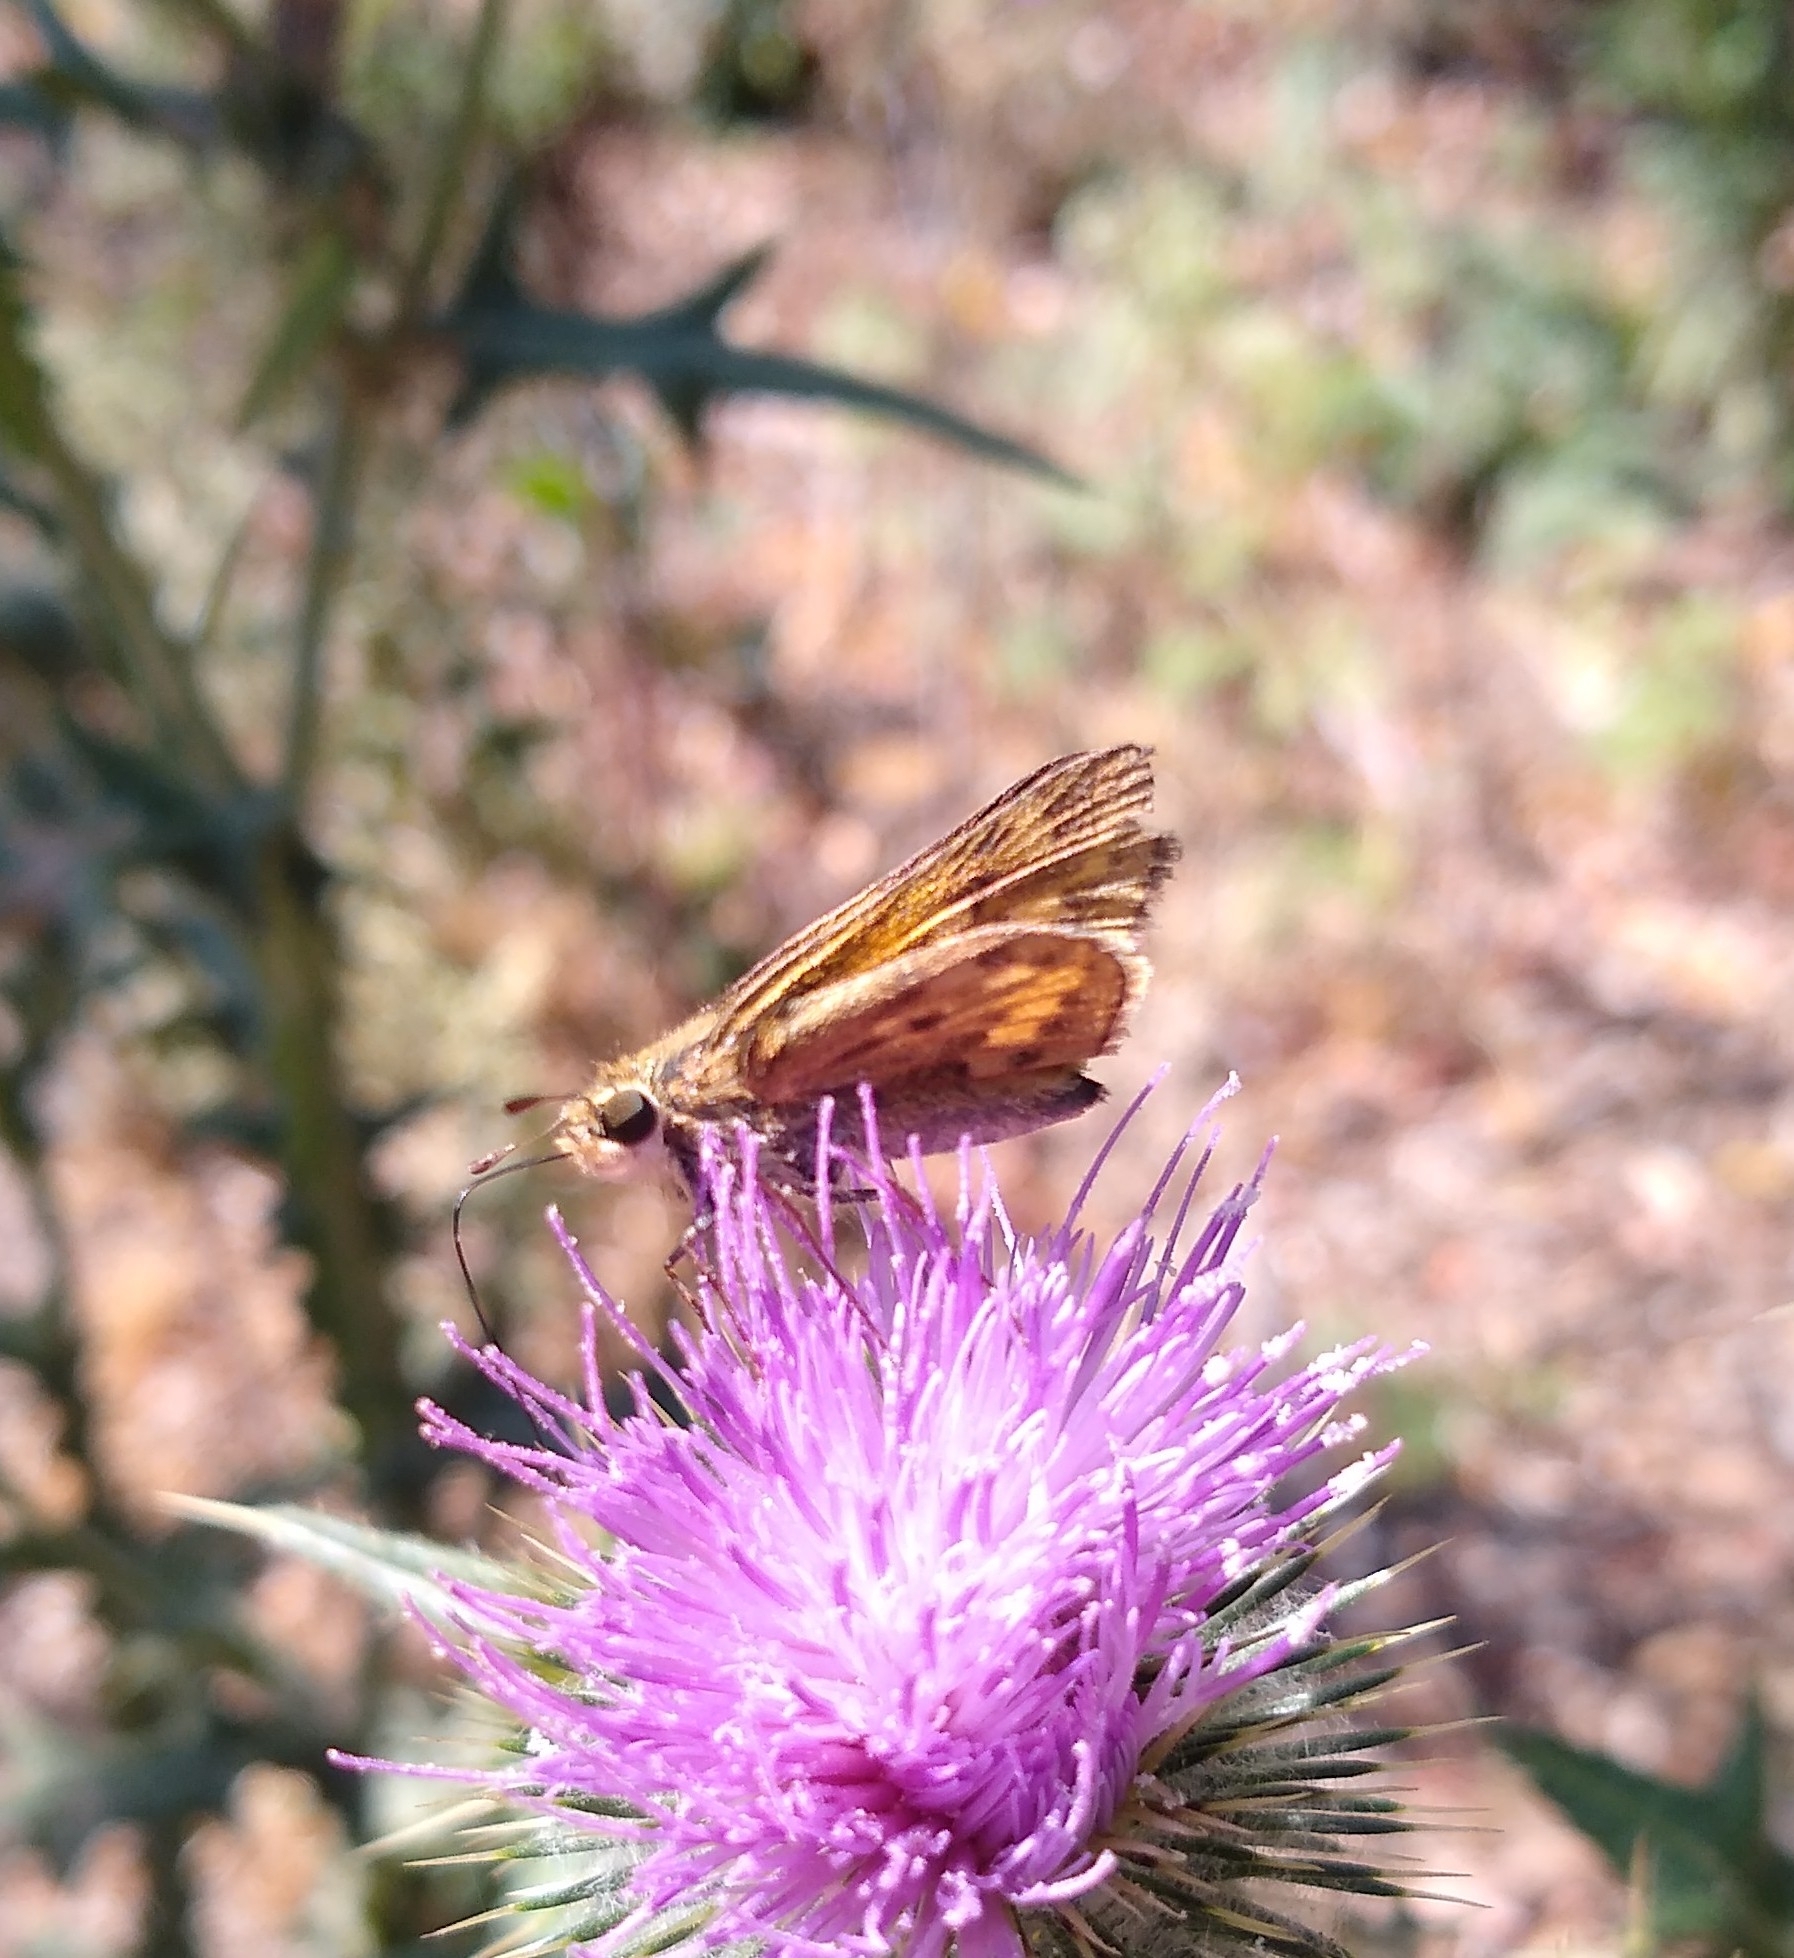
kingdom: Animalia
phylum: Arthropoda
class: Insecta
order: Lepidoptera
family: Hesperiidae
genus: Hylephila
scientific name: Hylephila phyleus
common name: Fiery skipper
